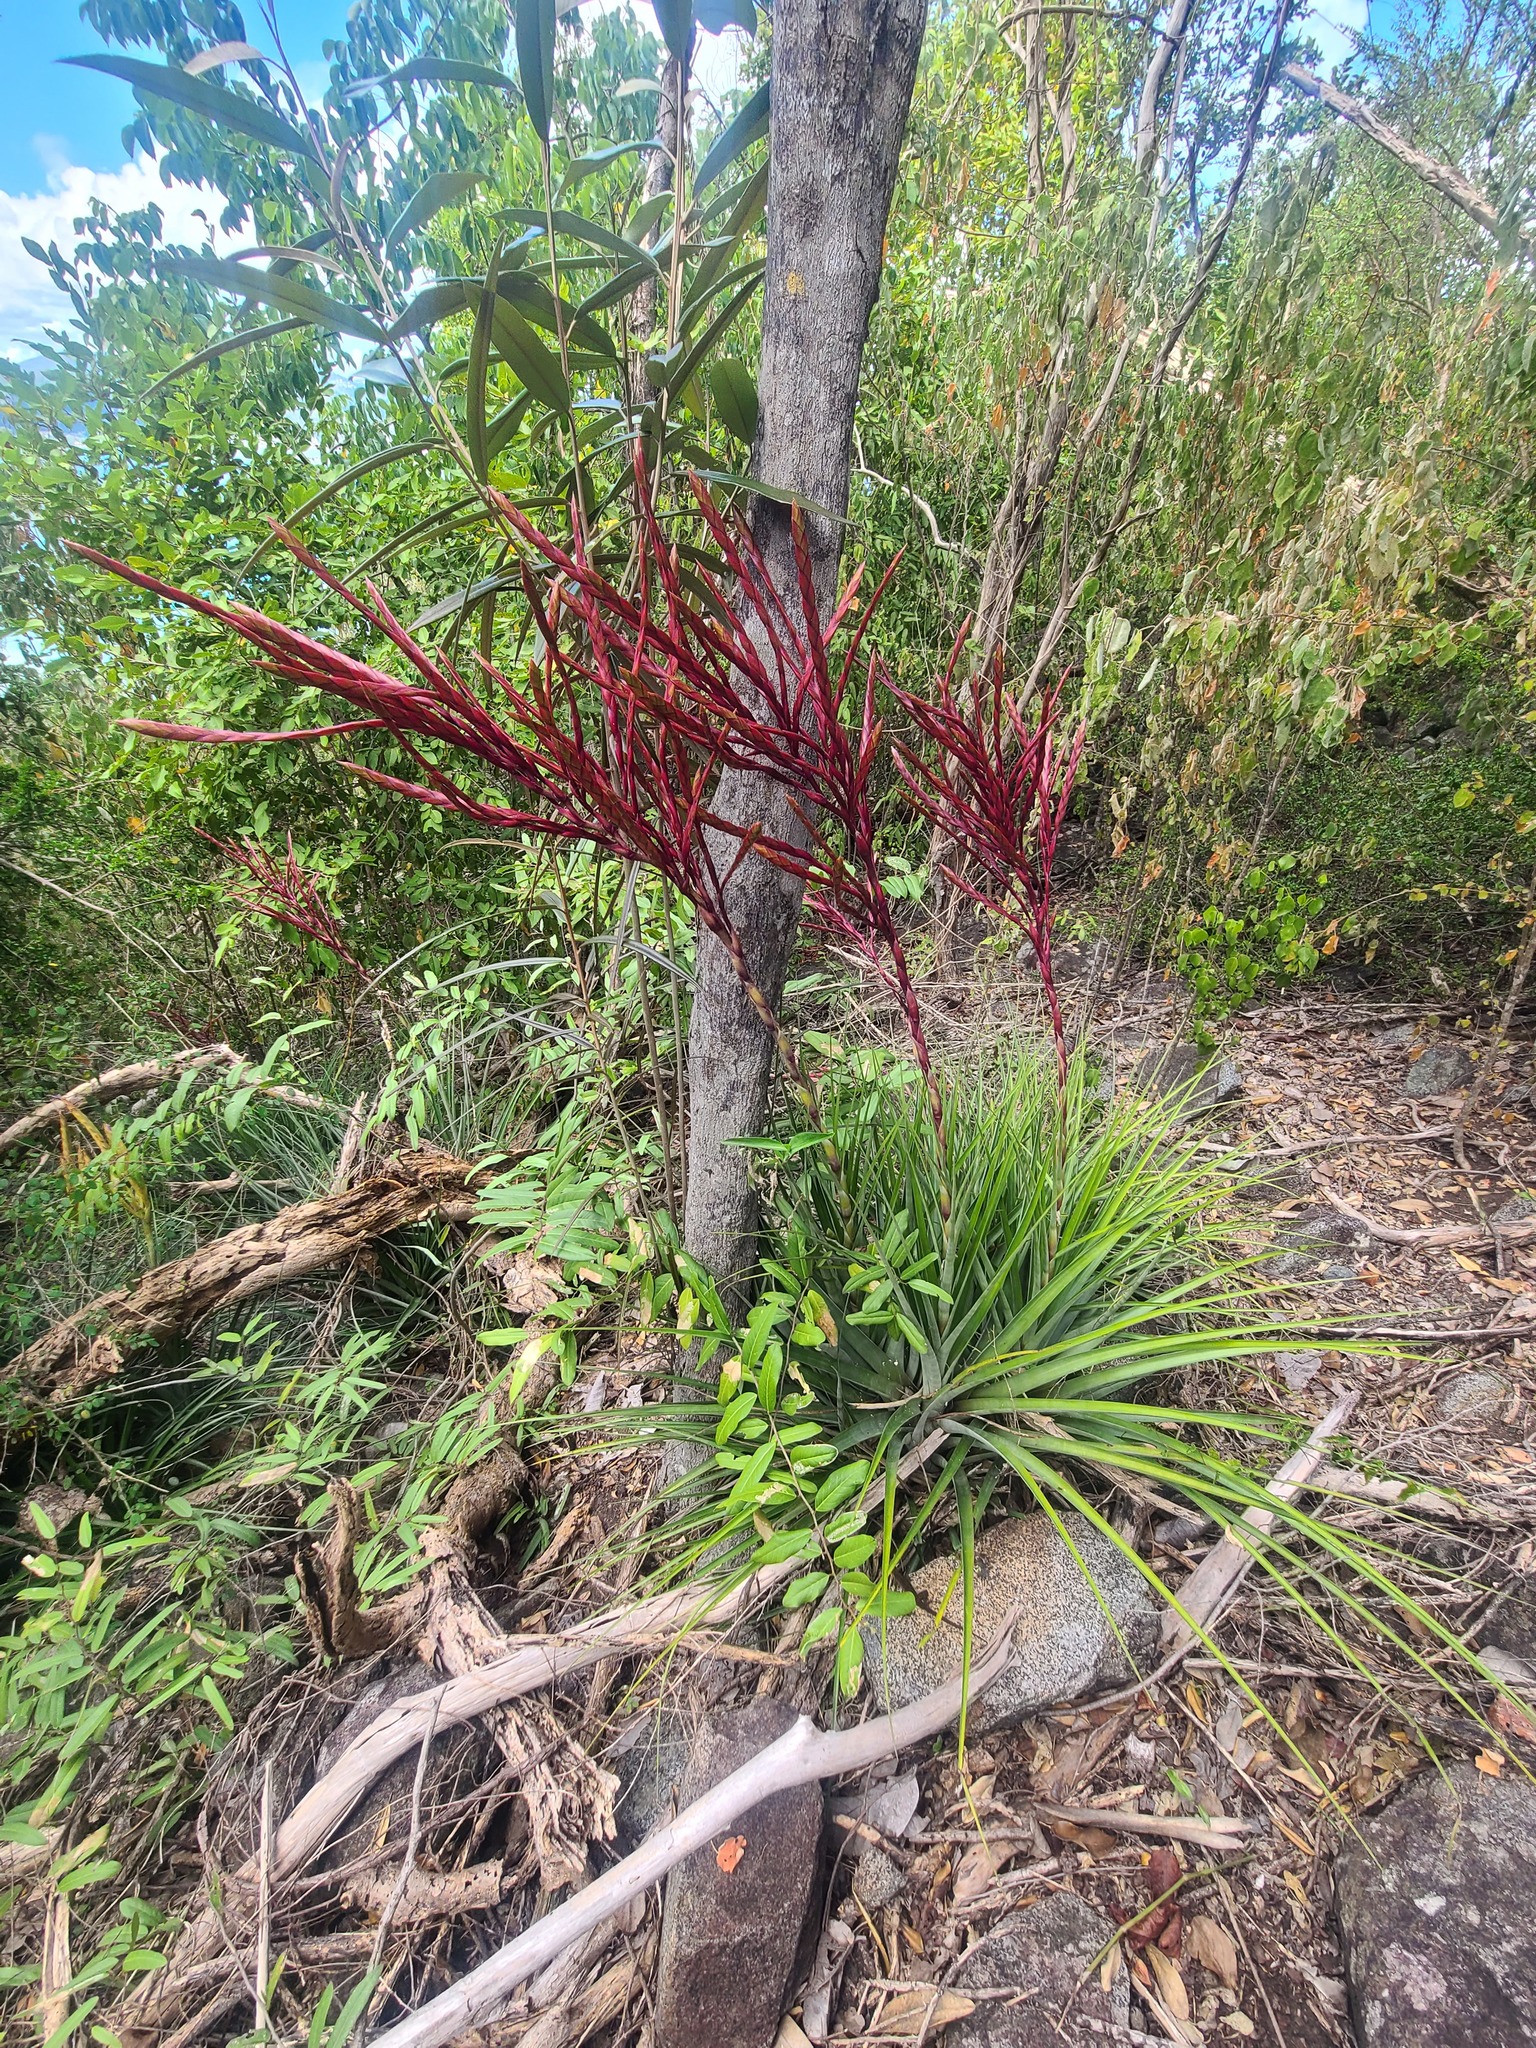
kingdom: Plantae
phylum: Tracheophyta
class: Liliopsida
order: Poales
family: Bromeliaceae
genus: Tillandsia
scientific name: Tillandsia lineatispica
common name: Pinon
